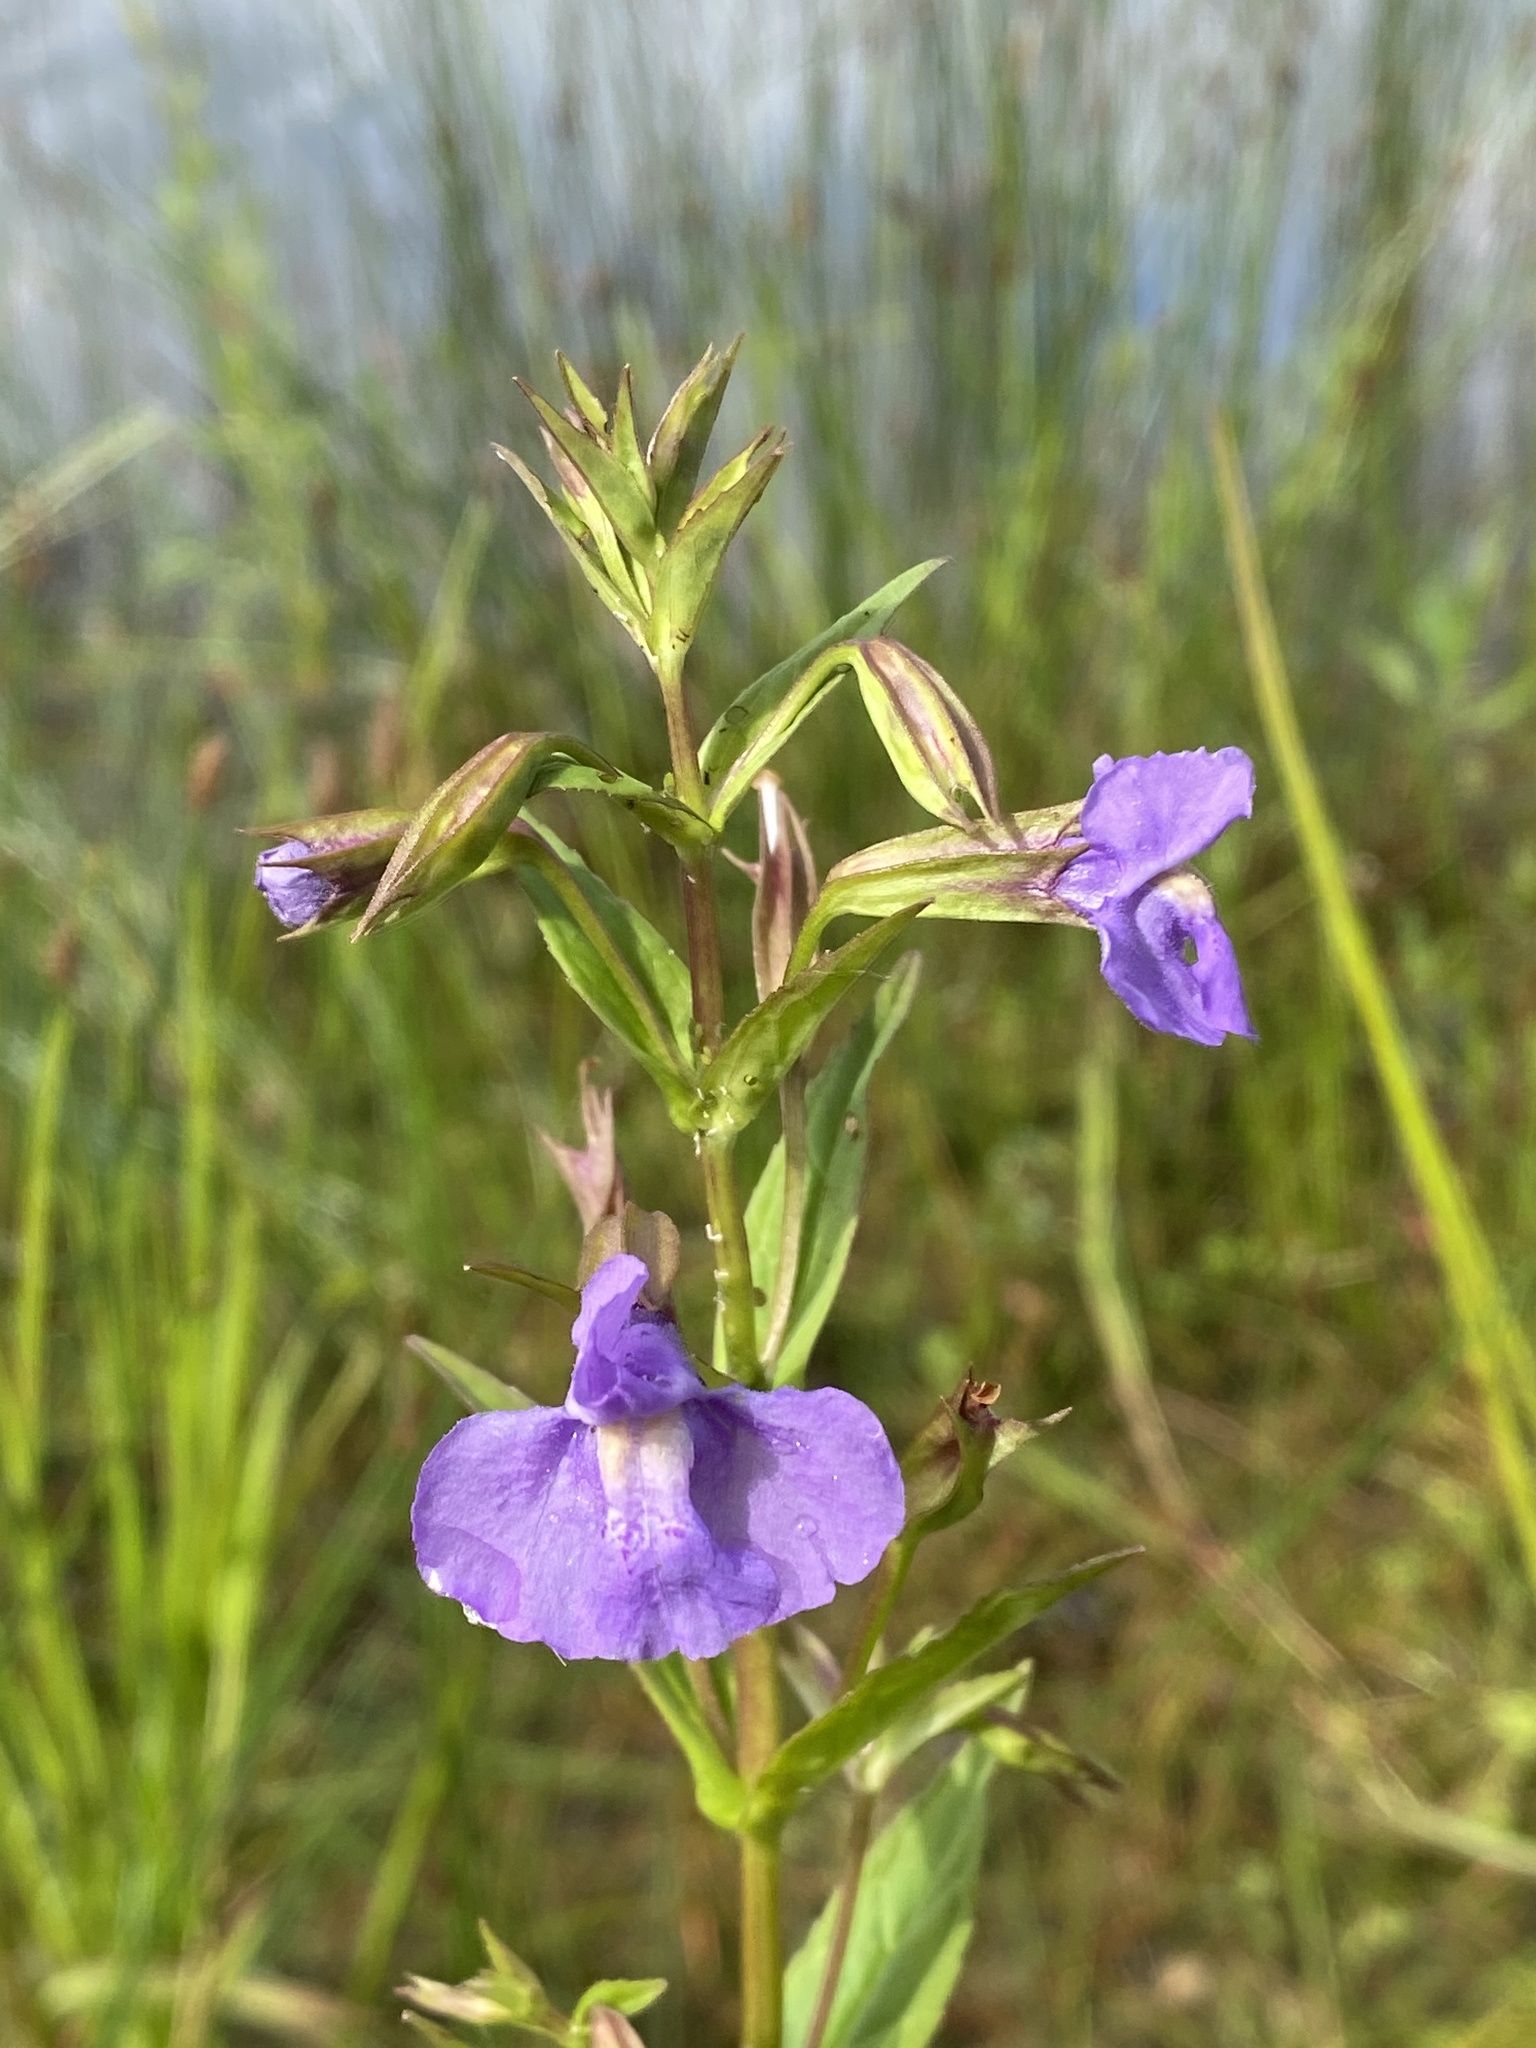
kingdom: Plantae
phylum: Tracheophyta
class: Magnoliopsida
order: Lamiales
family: Phrymaceae
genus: Mimulus
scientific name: Mimulus ringens
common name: Allegheny monkeyflower
